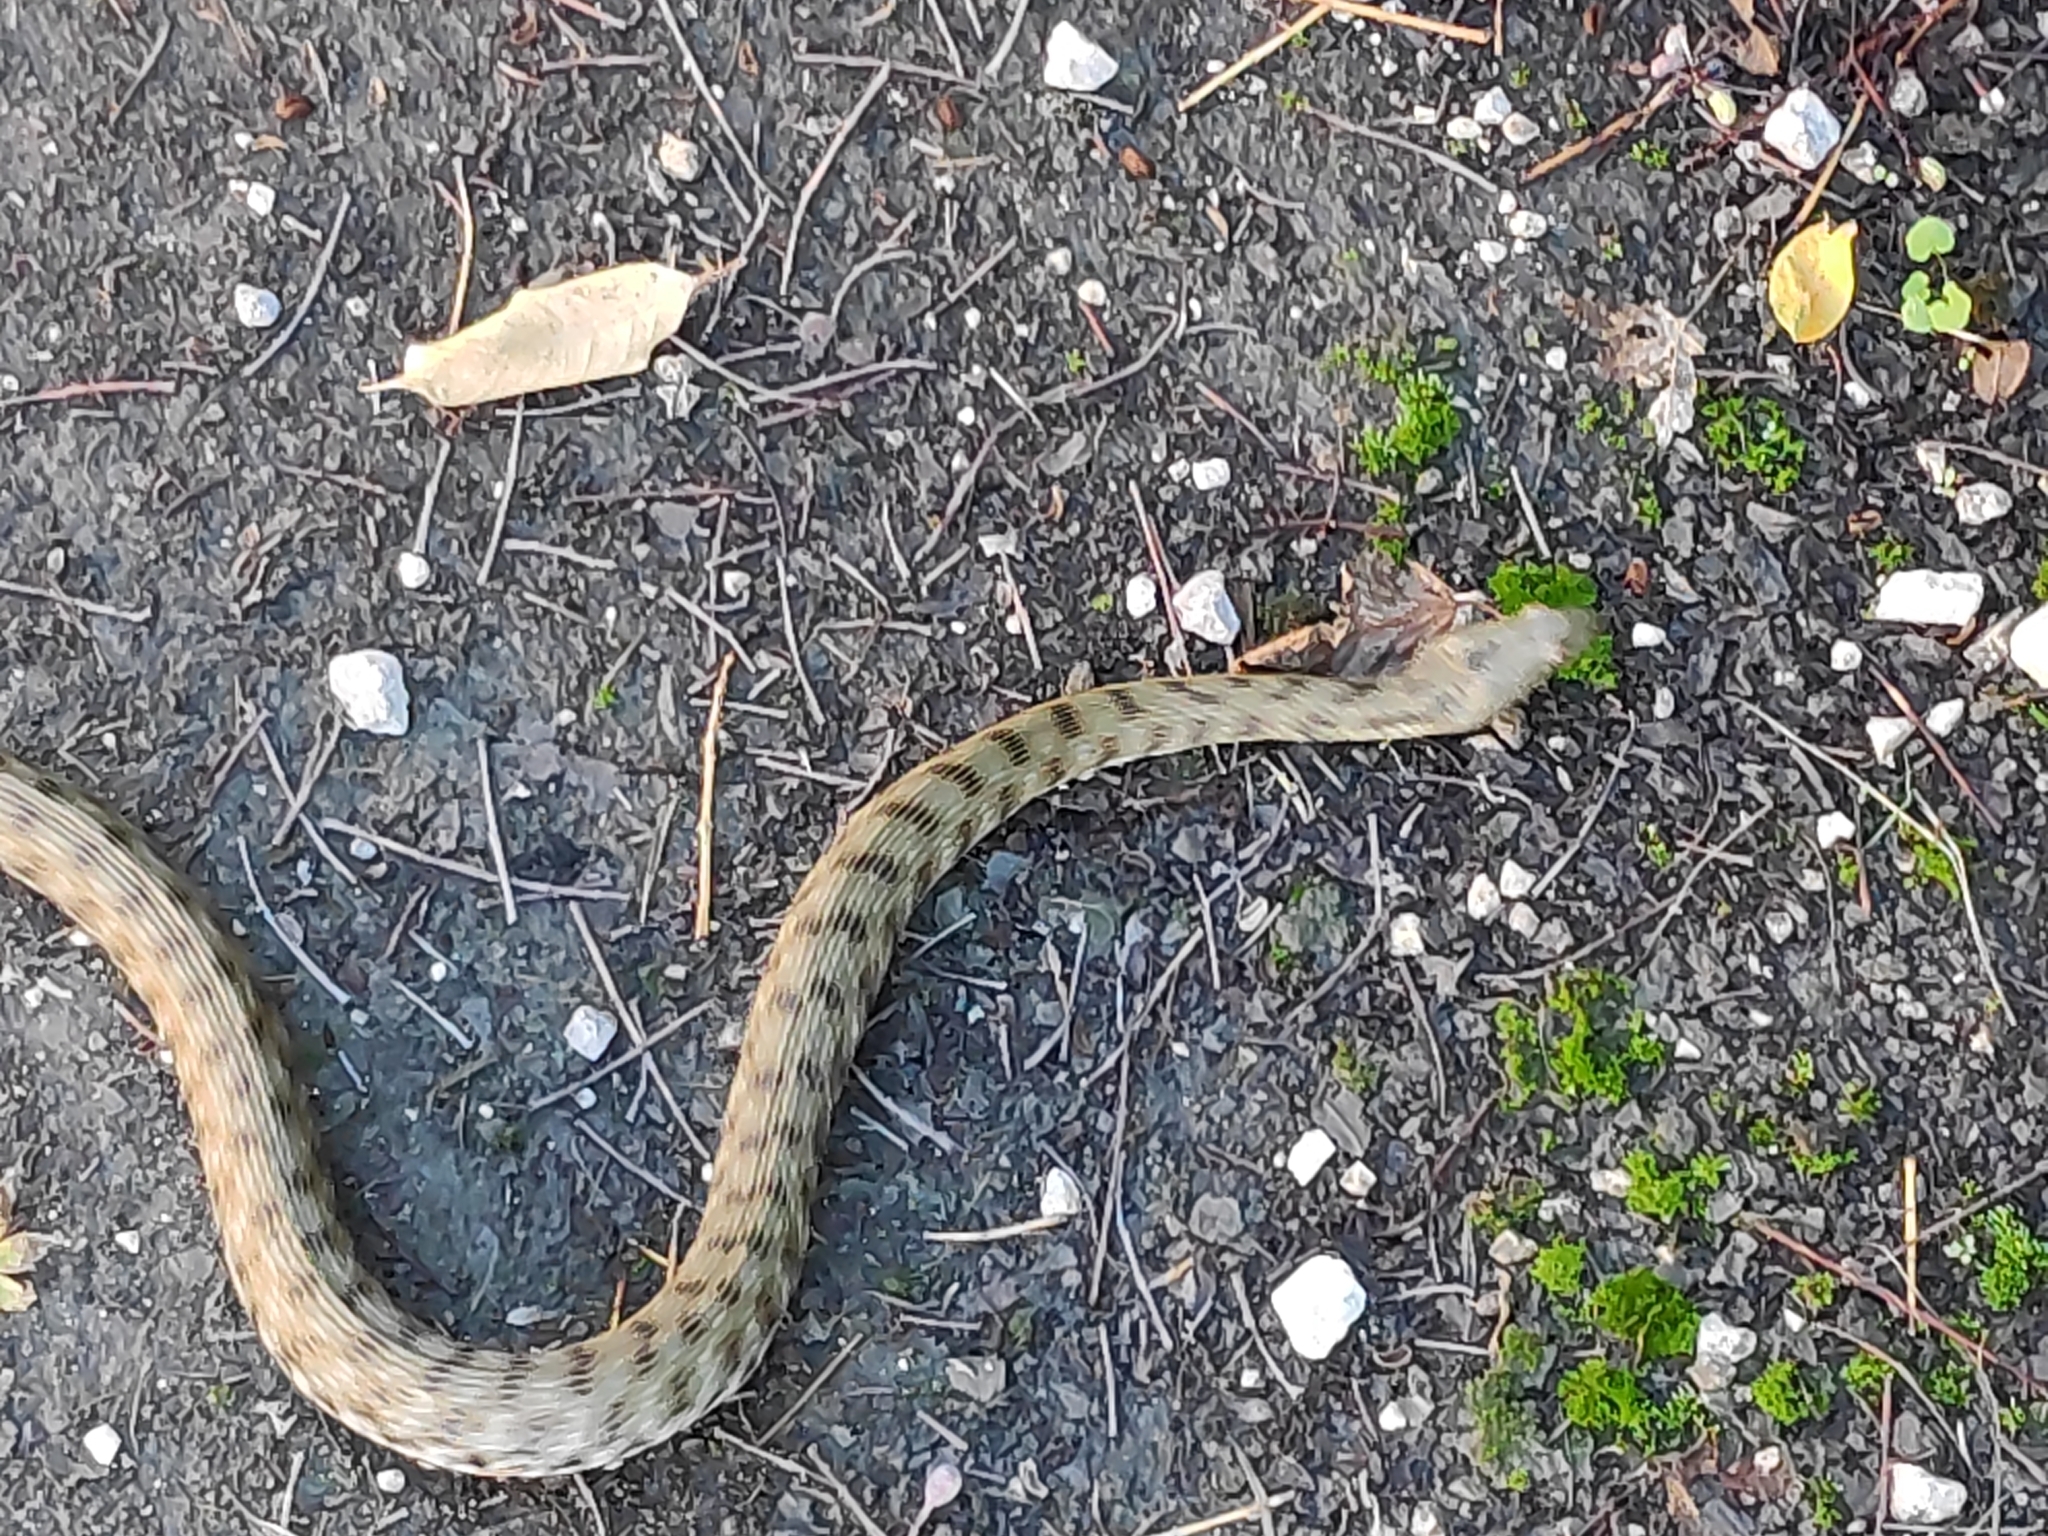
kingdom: Animalia
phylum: Chordata
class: Squamata
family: Colubridae
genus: Natrix
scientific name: Natrix tessellata
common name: Dice snake
